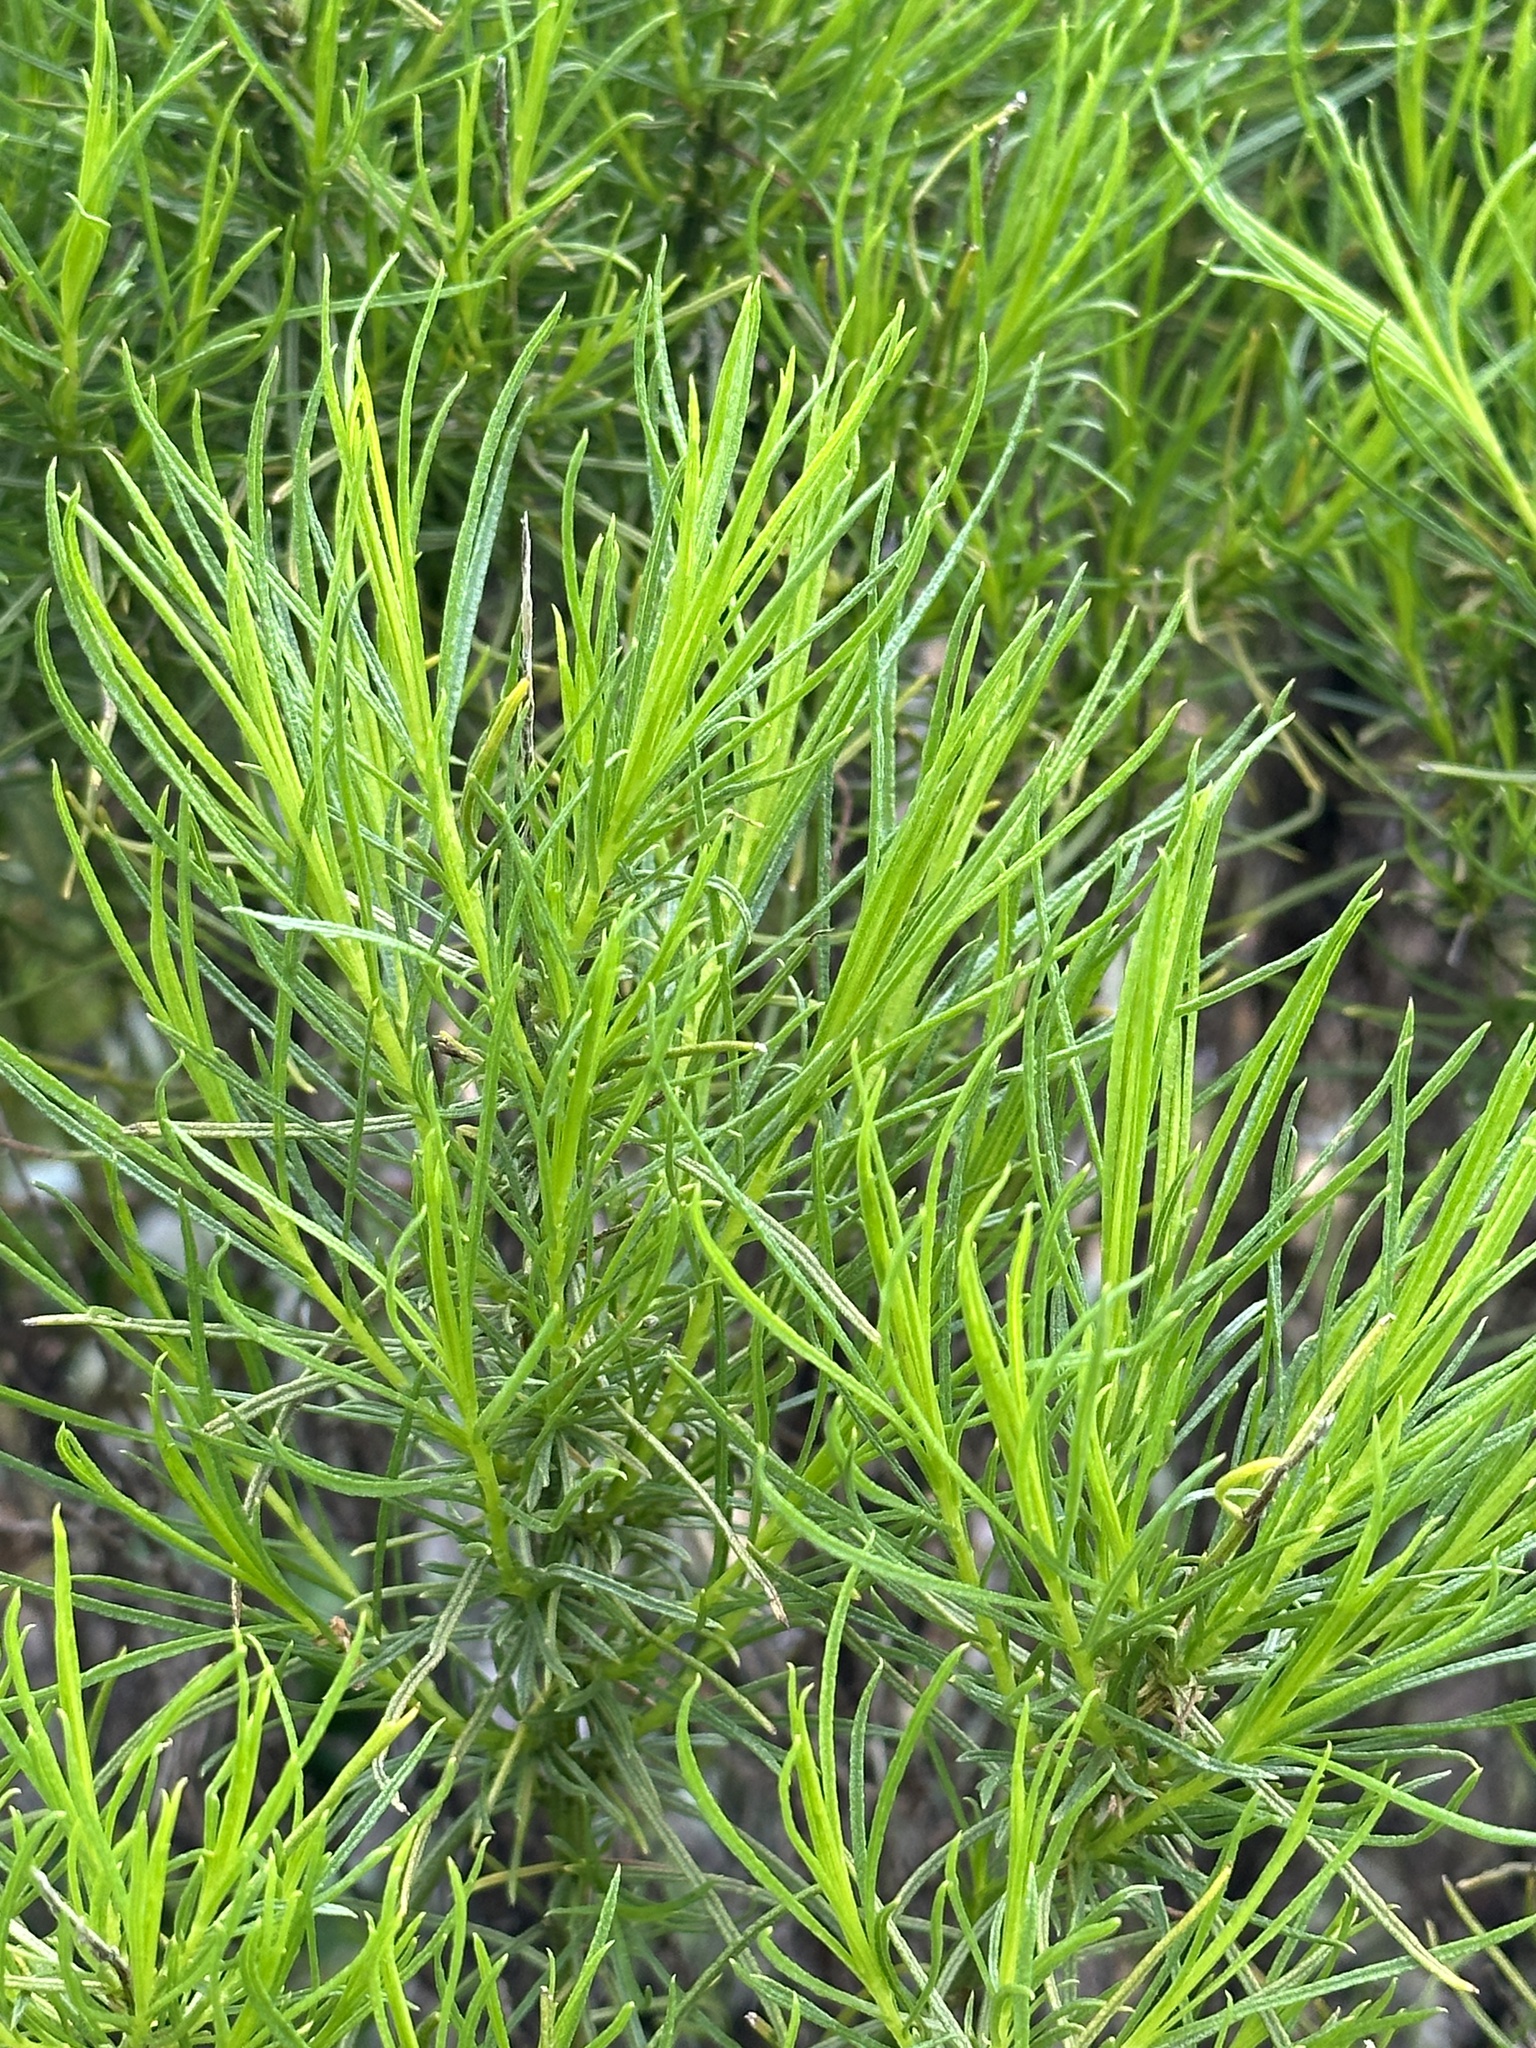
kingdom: Plantae
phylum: Tracheophyta
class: Magnoliopsida
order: Asterales
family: Asteraceae
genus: Ericameria
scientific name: Ericameria arborescens
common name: Goldenfleece
